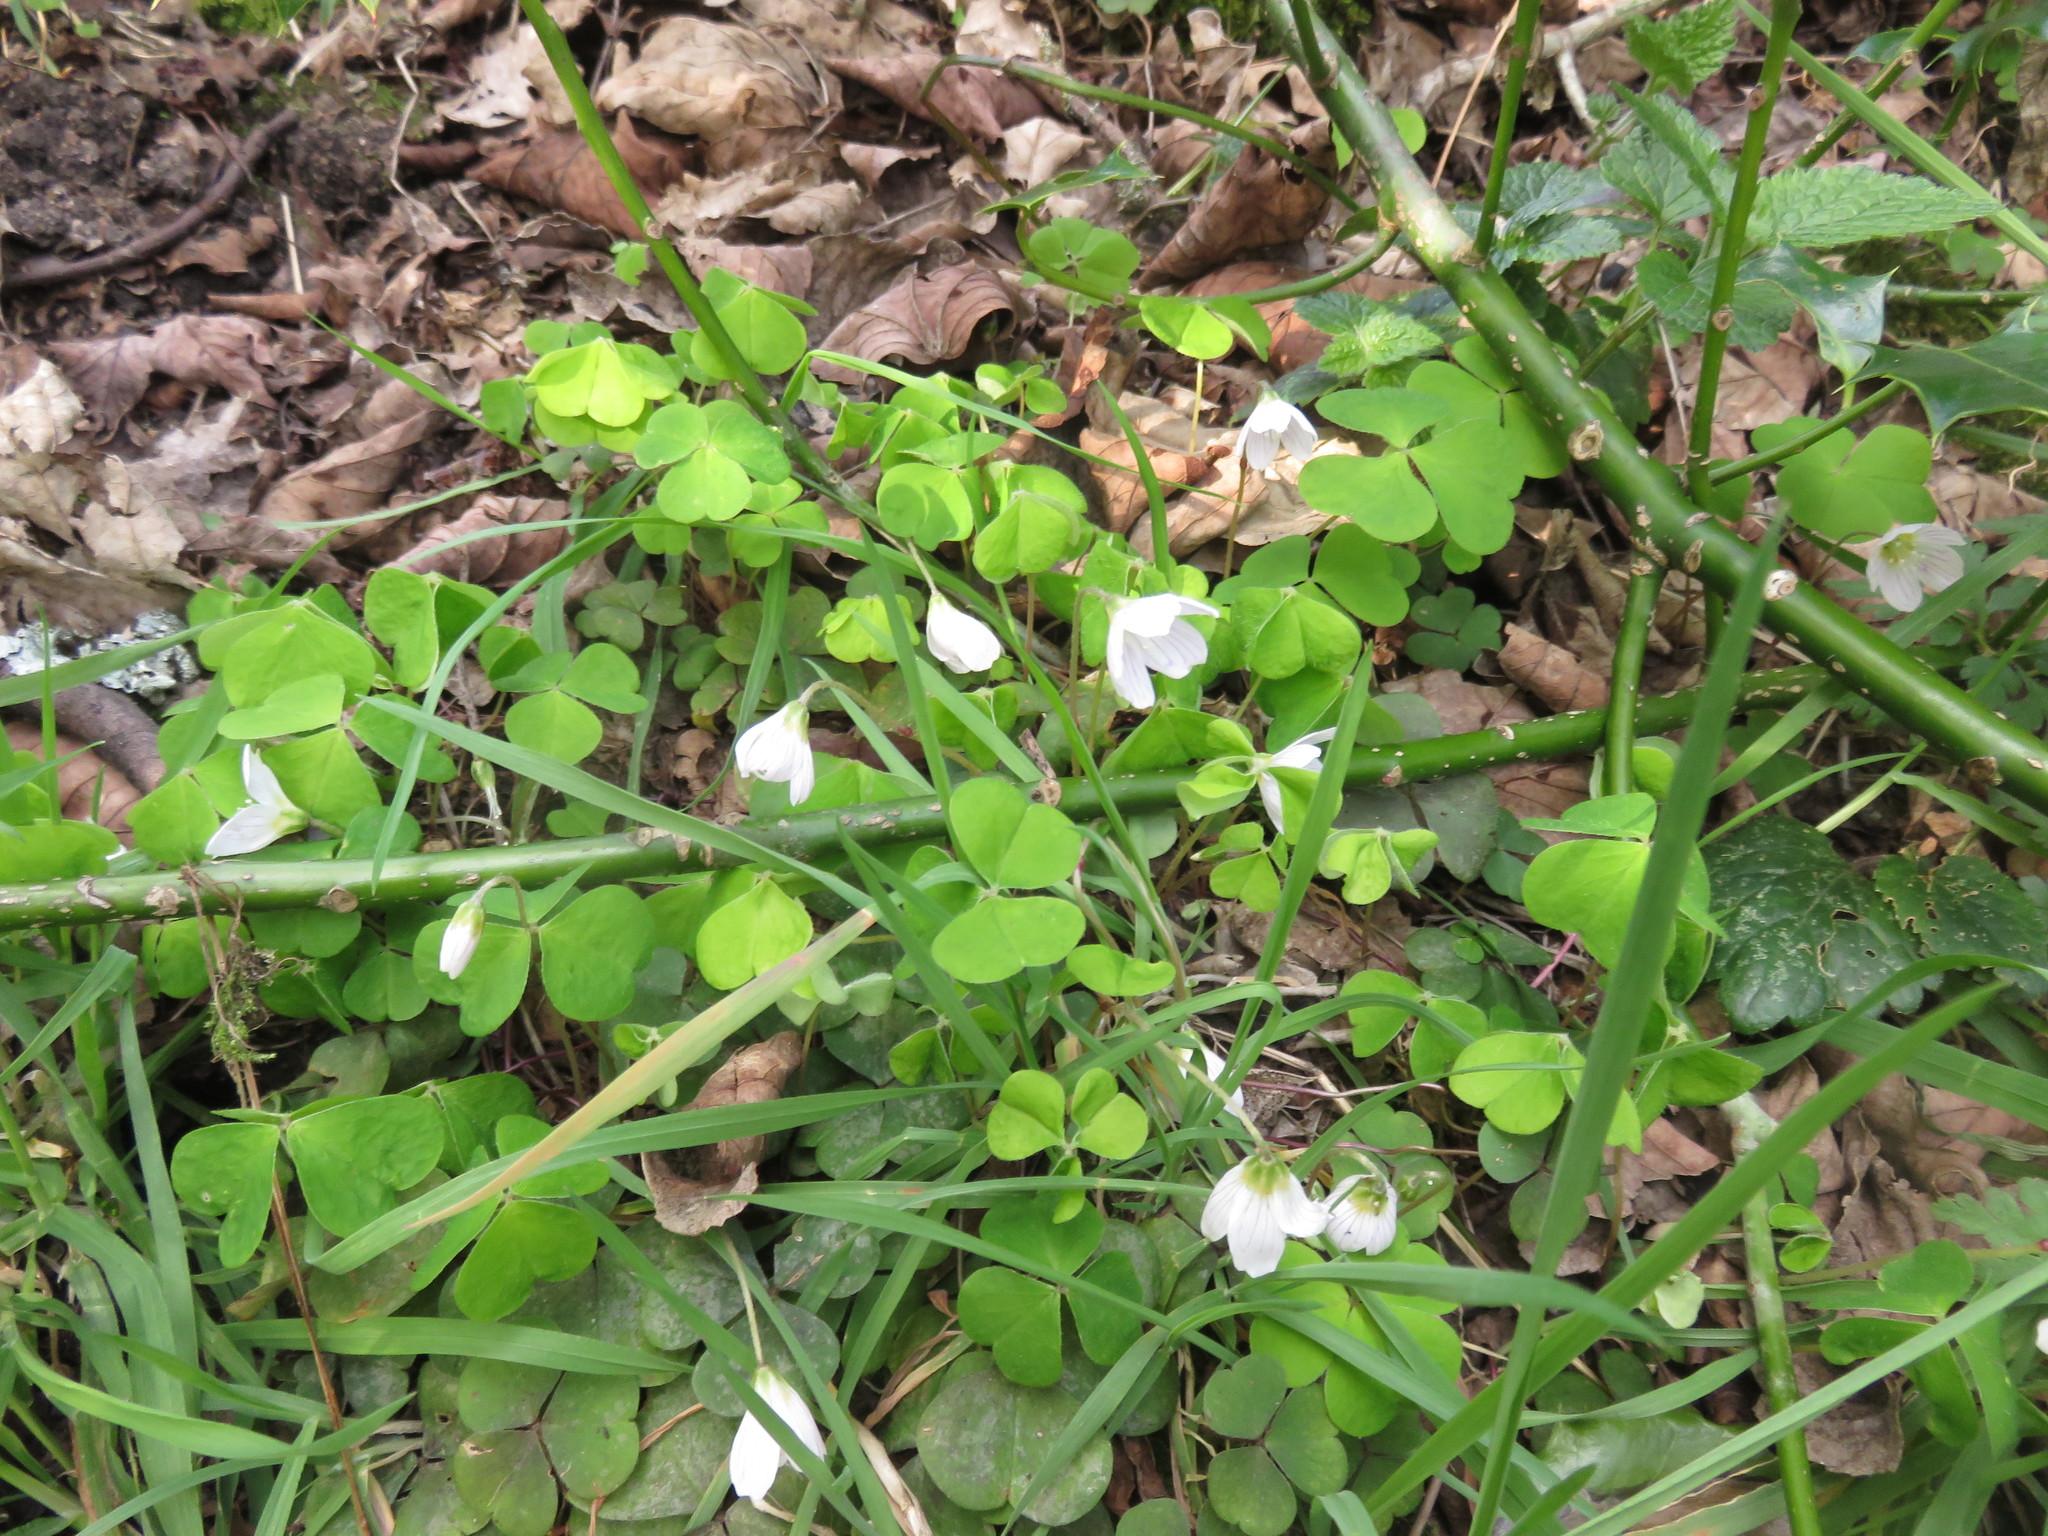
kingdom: Plantae
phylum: Tracheophyta
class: Magnoliopsida
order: Oxalidales
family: Oxalidaceae
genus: Oxalis
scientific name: Oxalis acetosella
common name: Wood-sorrel
